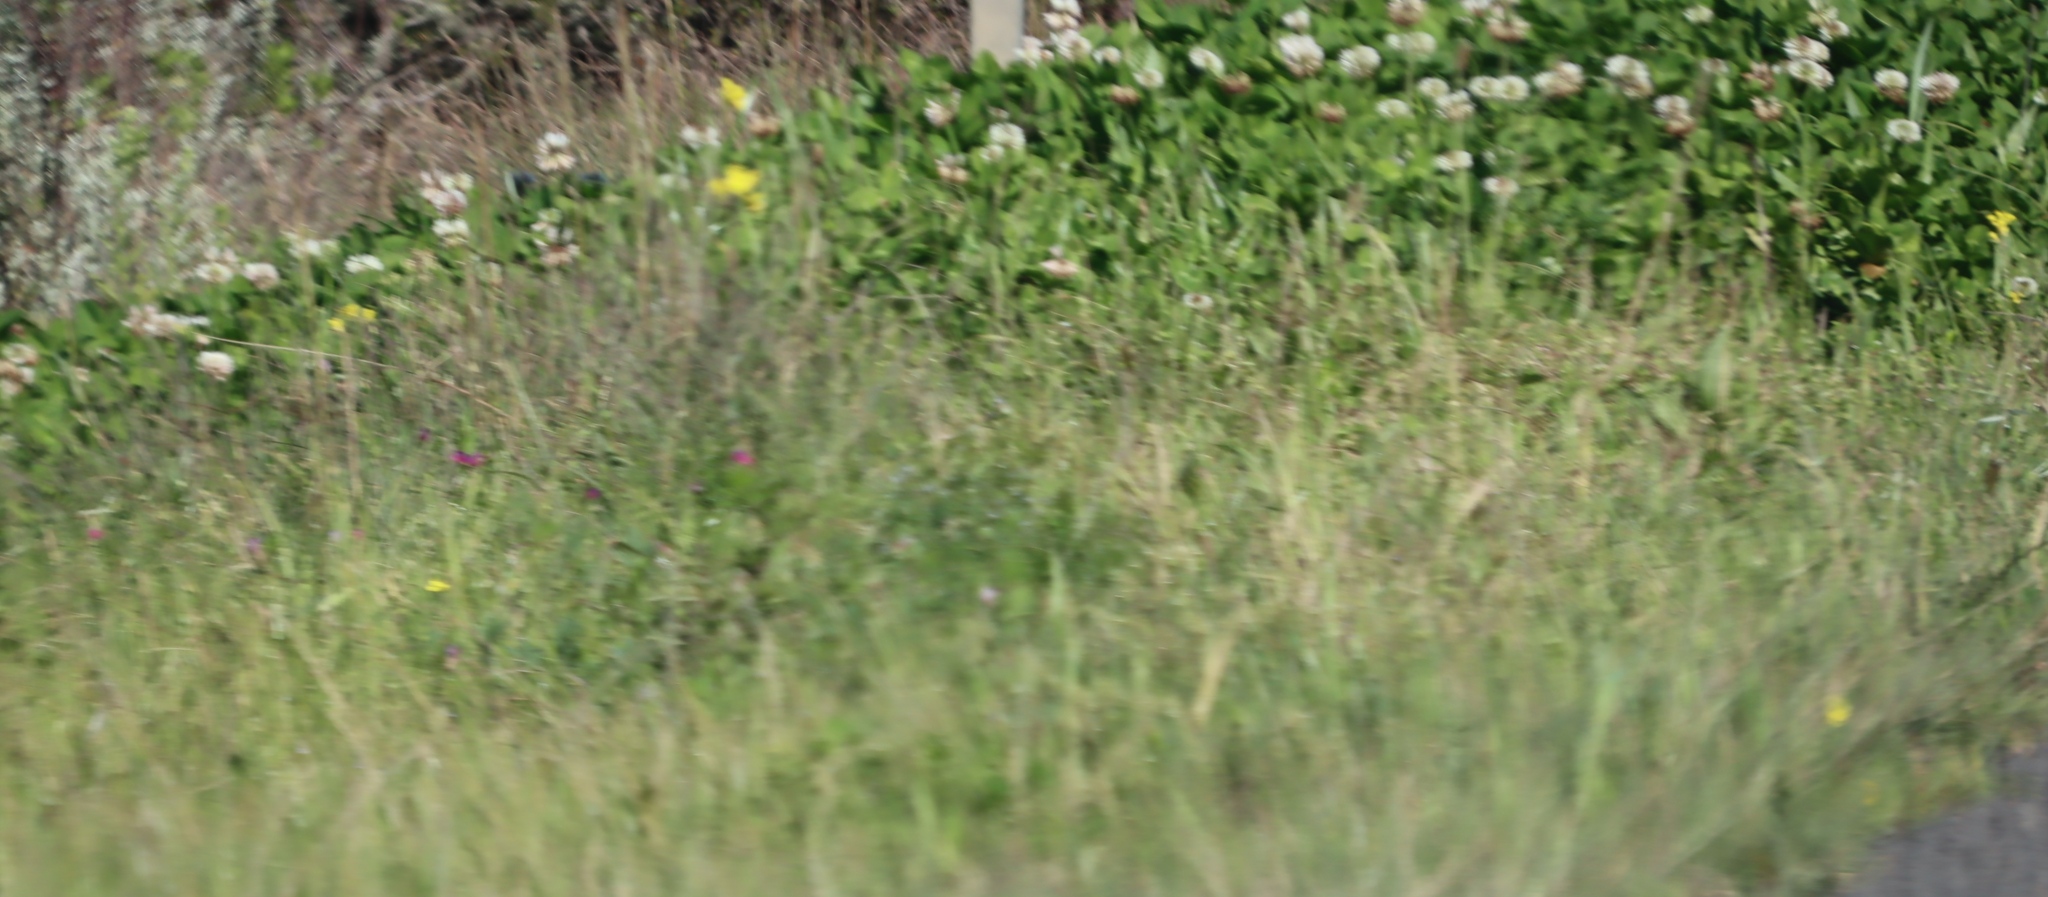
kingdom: Plantae
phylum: Tracheophyta
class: Magnoliopsida
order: Fabales
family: Fabaceae
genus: Trifolium
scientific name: Trifolium repens
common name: White clover
